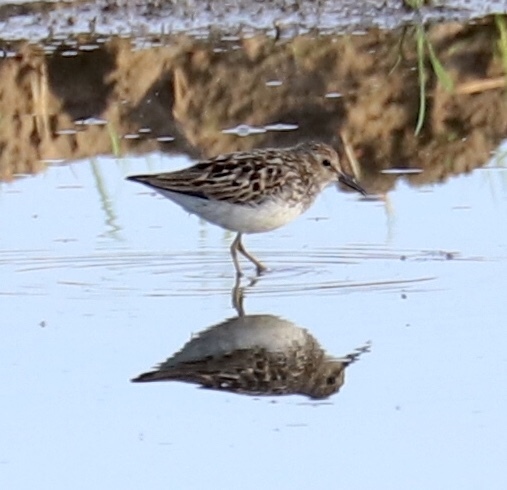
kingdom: Animalia
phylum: Chordata
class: Aves
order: Charadriiformes
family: Scolopacidae
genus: Calidris
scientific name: Calidris minutilla
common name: Least sandpiper
